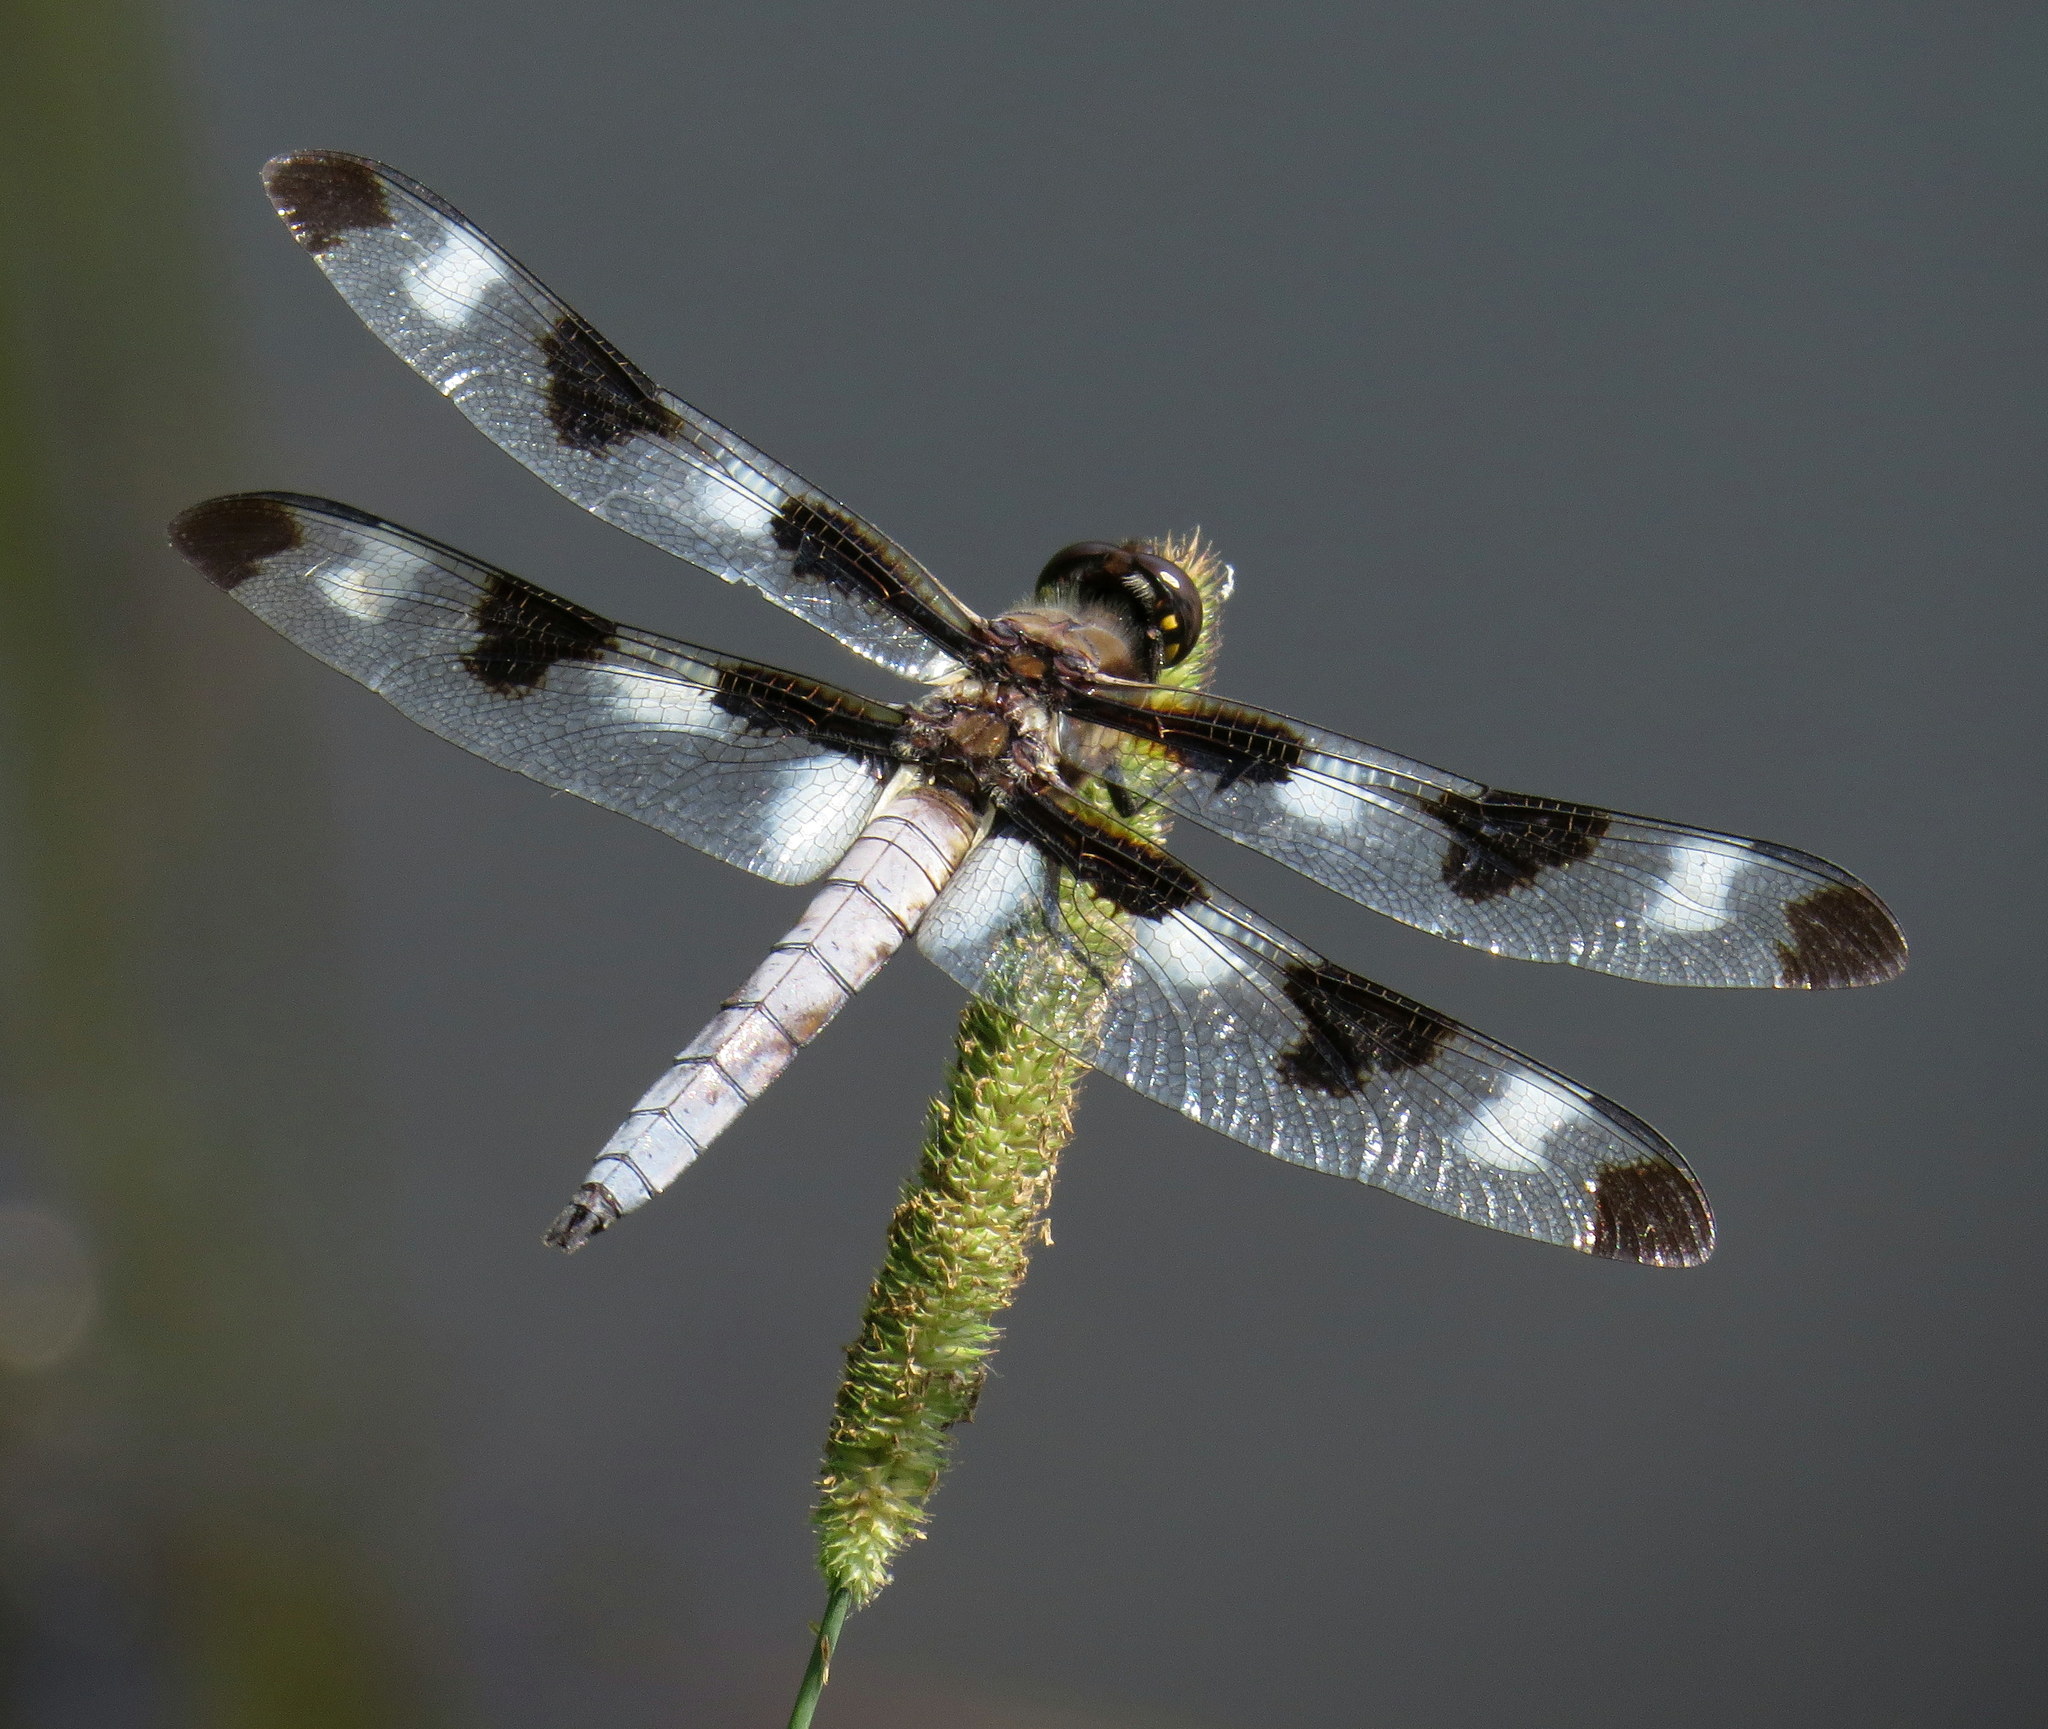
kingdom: Animalia
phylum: Arthropoda
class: Insecta
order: Odonata
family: Libellulidae
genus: Libellula
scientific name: Libellula pulchella
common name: Twelve-spotted skimmer
